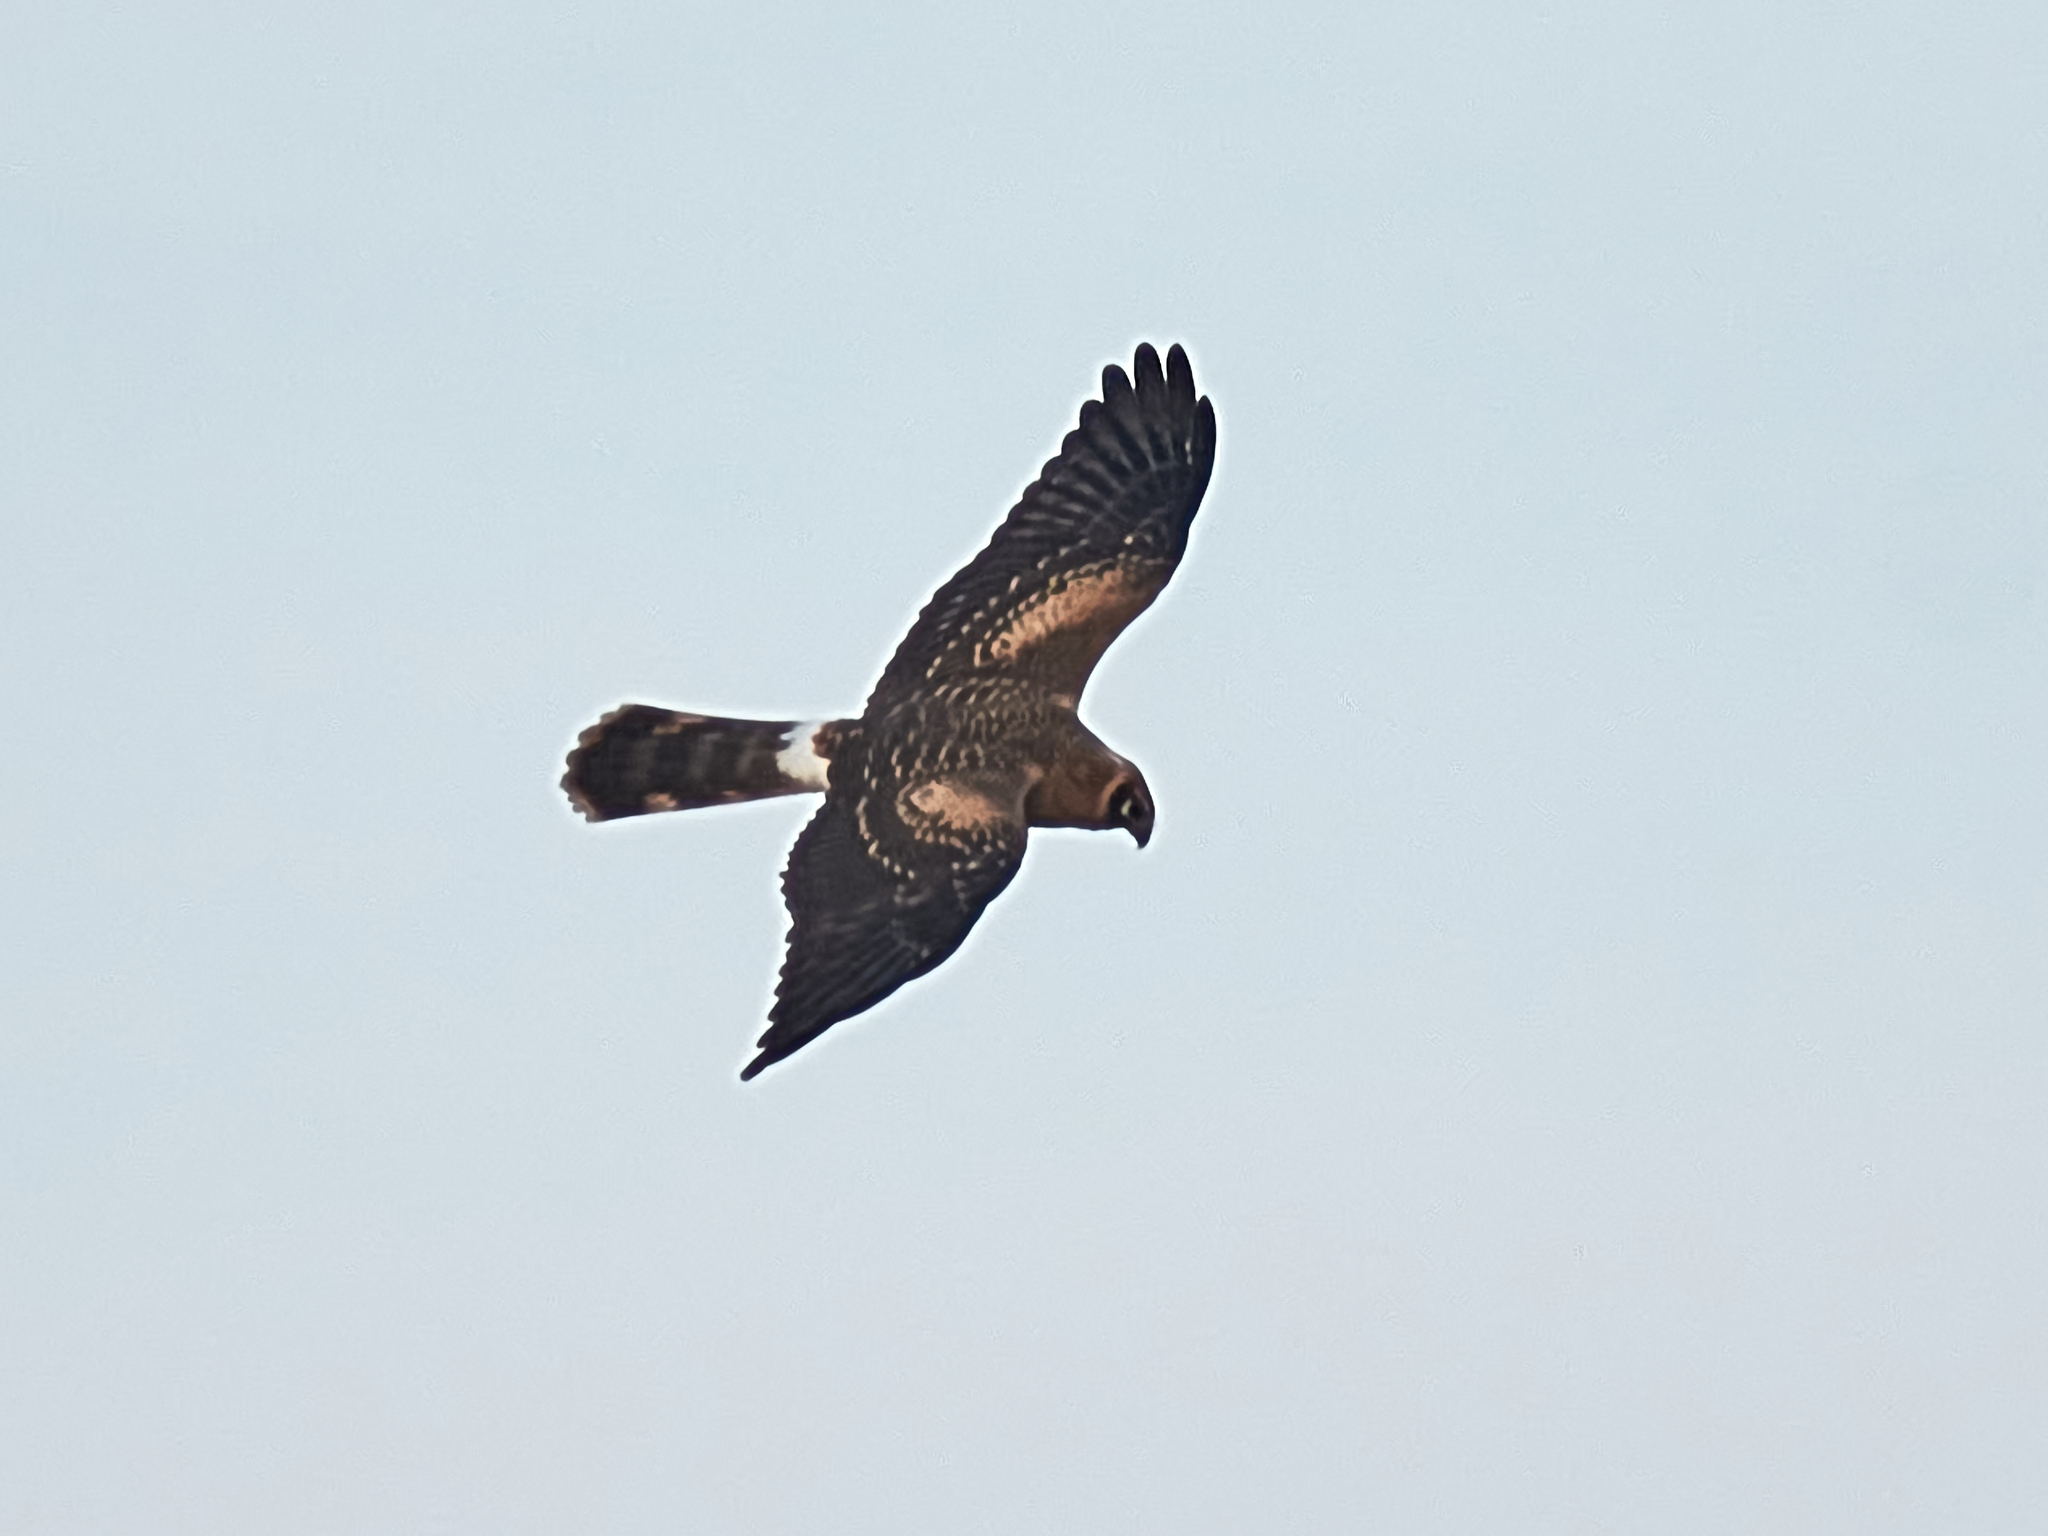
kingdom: Animalia
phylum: Chordata
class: Aves
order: Accipitriformes
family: Accipitridae
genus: Circus
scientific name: Circus macrourus
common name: Pallid harrier
